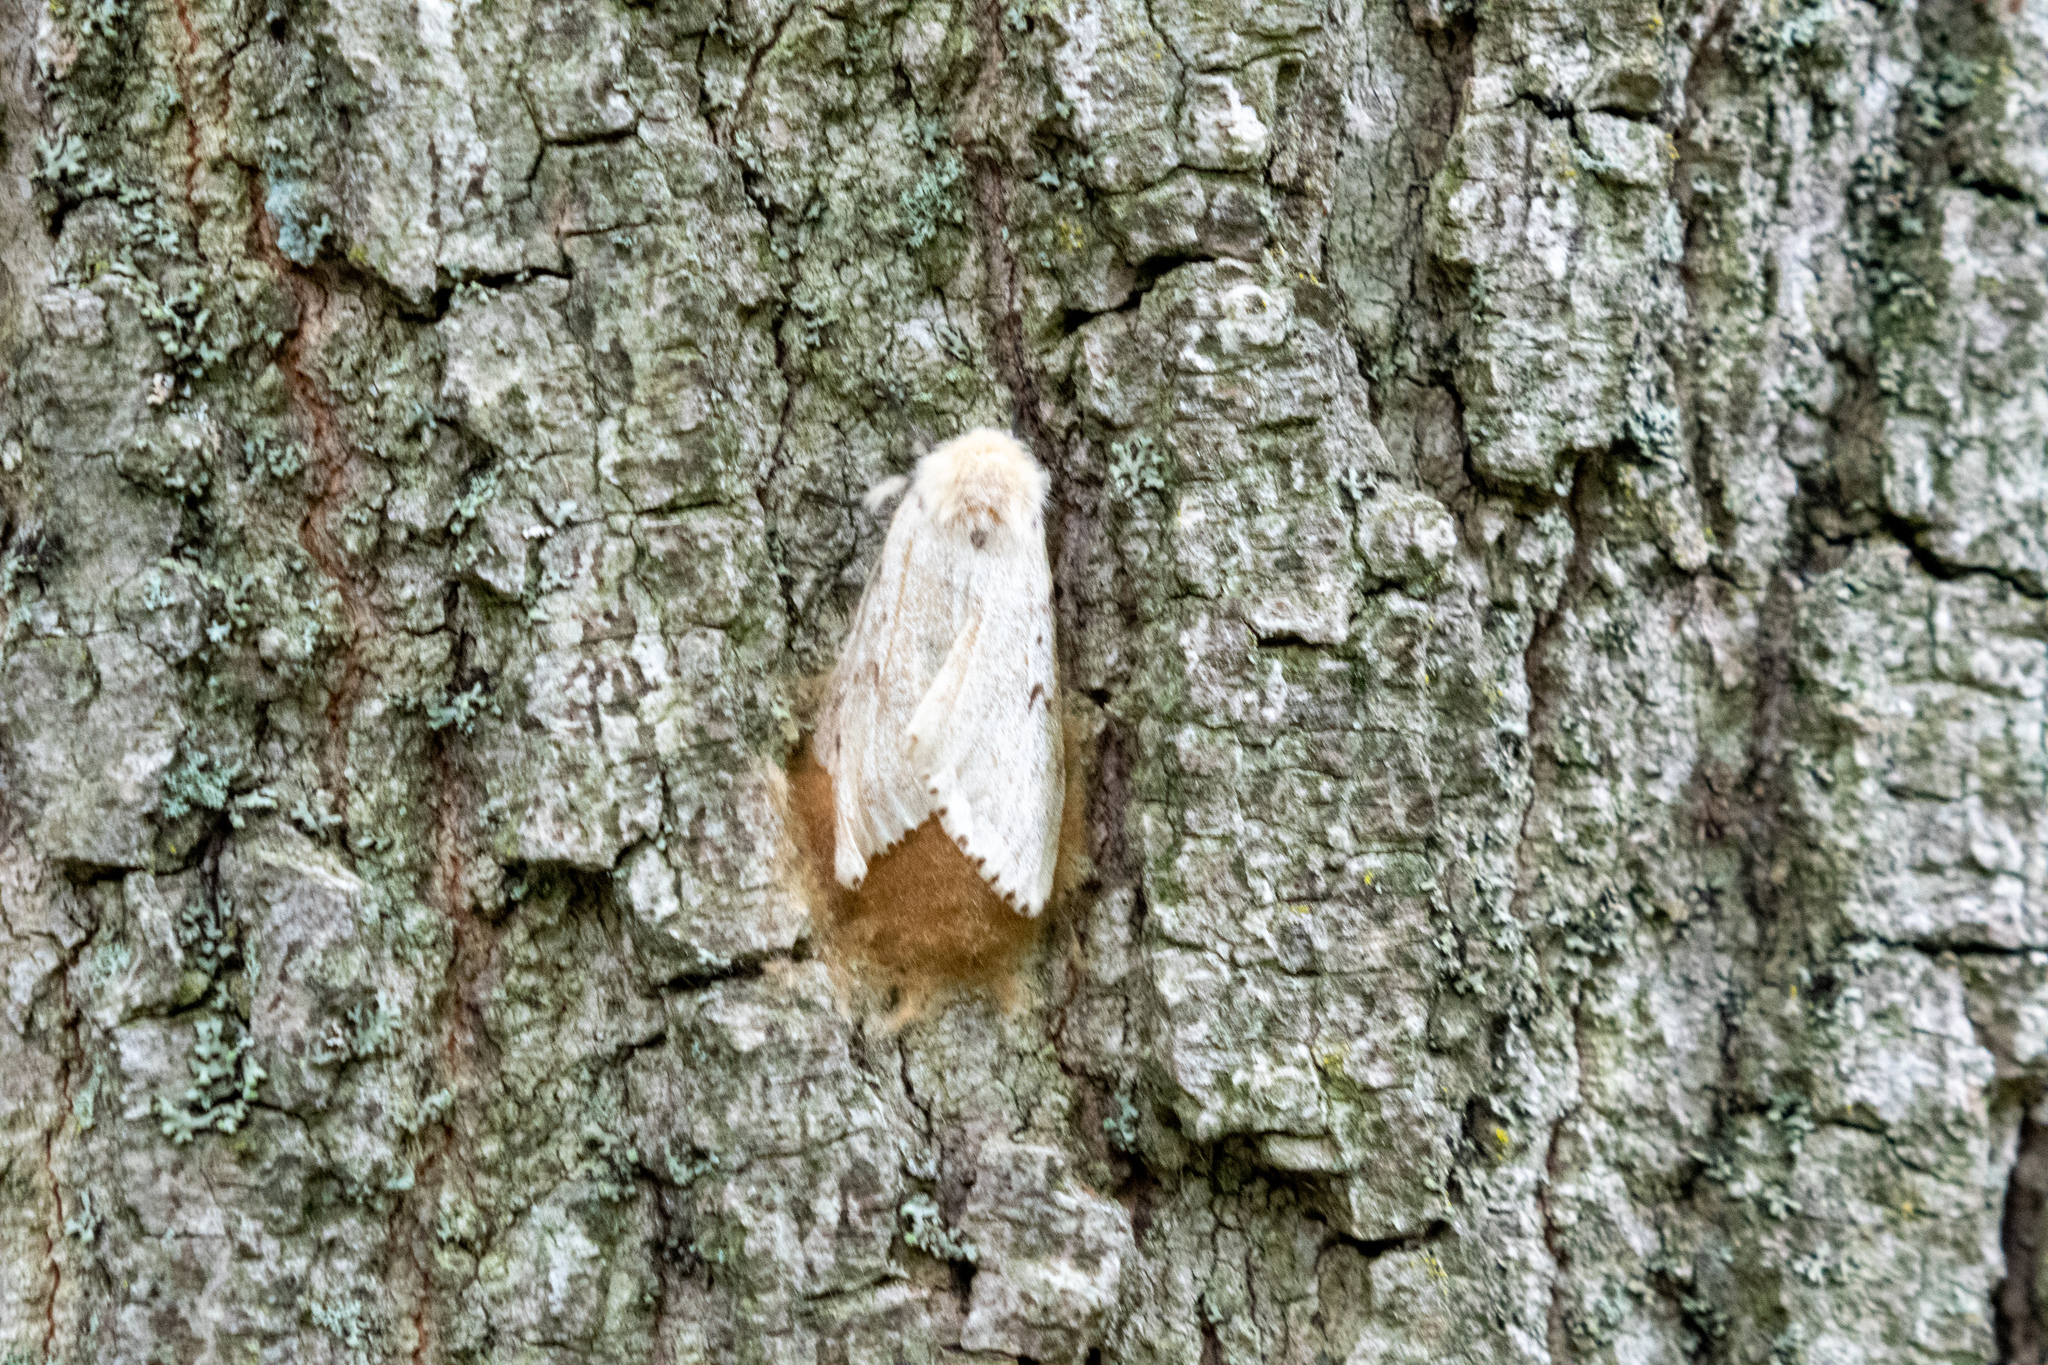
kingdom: Animalia
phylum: Arthropoda
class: Insecta
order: Lepidoptera
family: Erebidae
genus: Lymantria
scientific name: Lymantria dispar
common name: Gypsy moth
